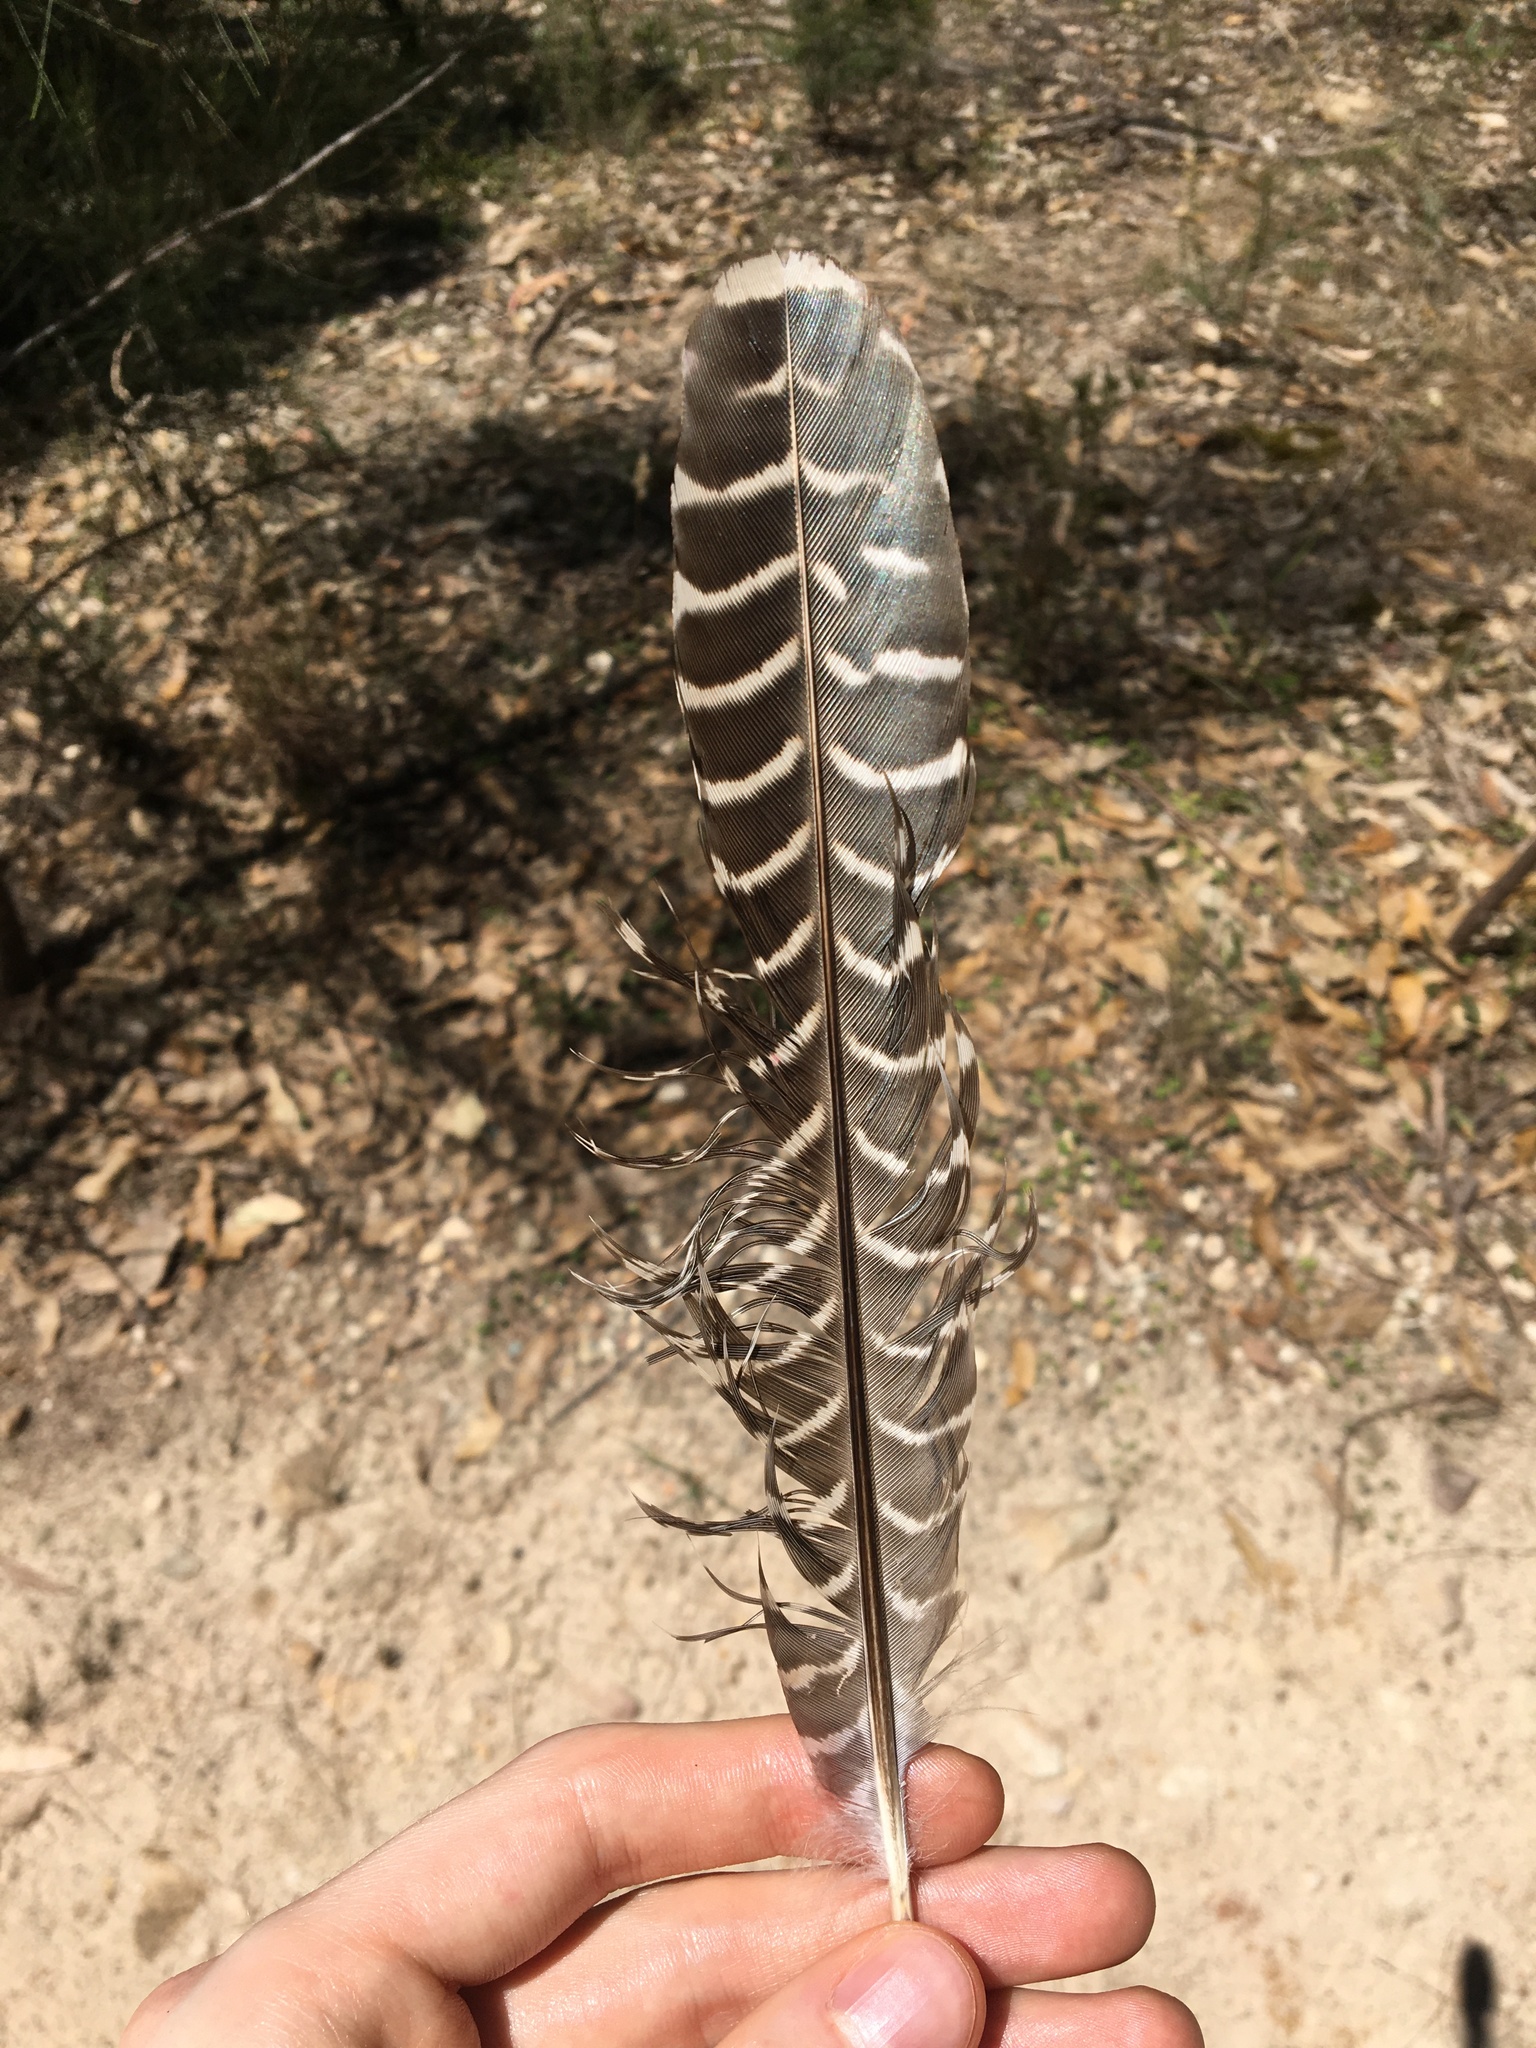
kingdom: Animalia
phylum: Chordata
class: Aves
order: Cuculiformes
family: Cuculidae
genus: Eudynamys
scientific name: Eudynamys orientalis
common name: Pacific koel
